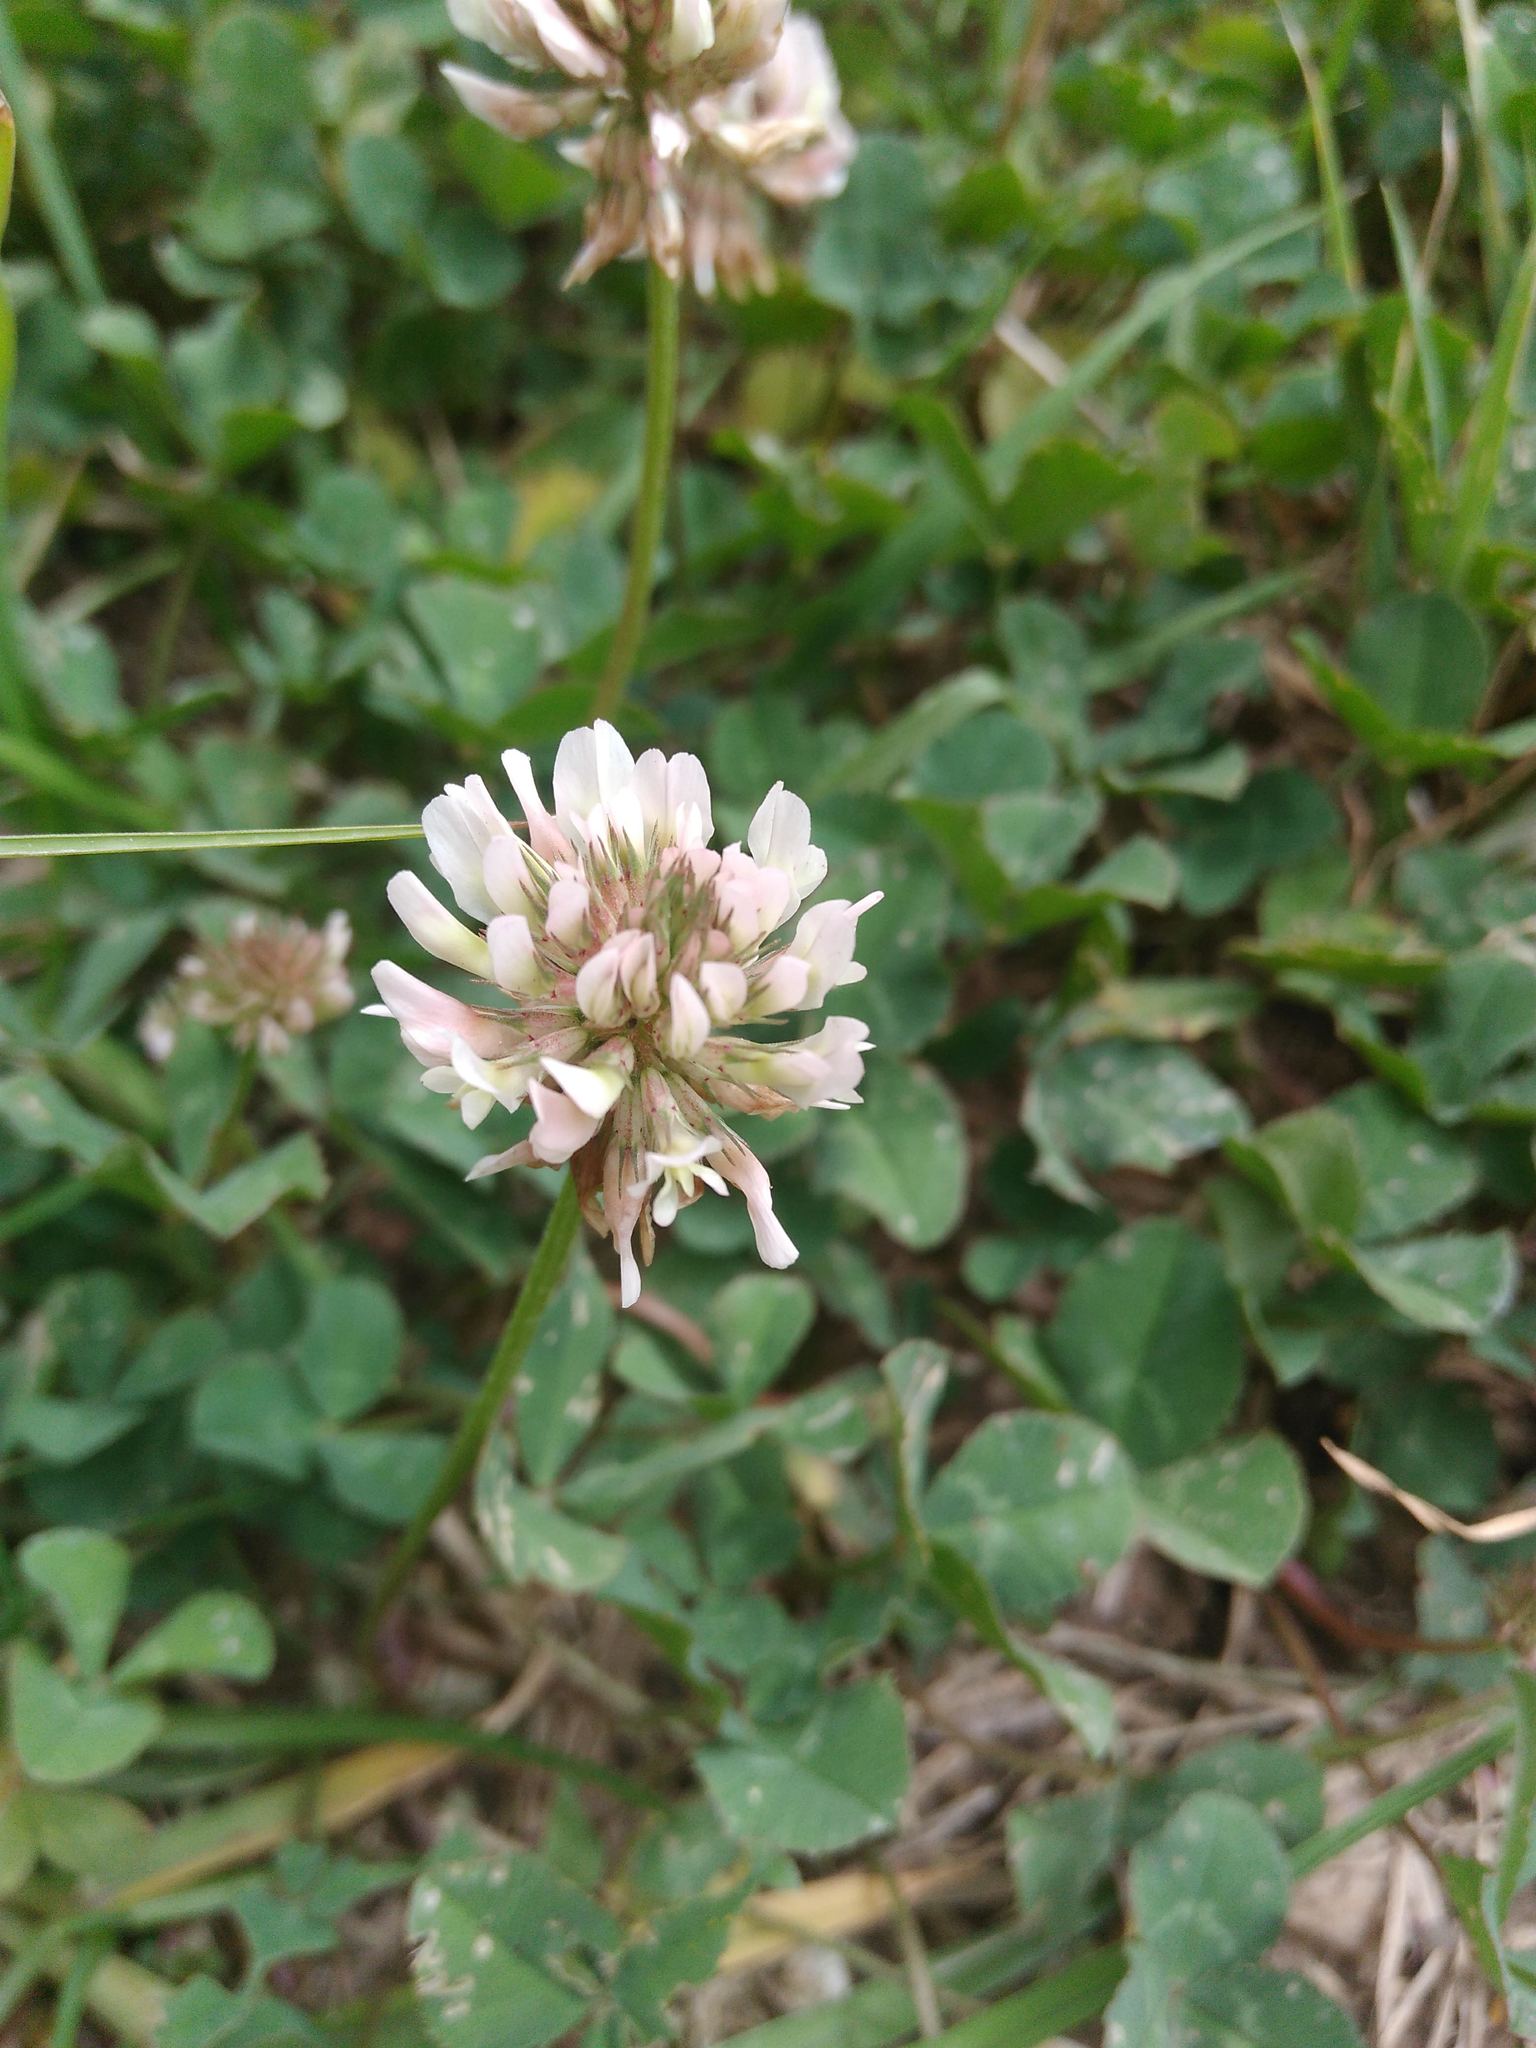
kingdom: Plantae
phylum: Tracheophyta
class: Magnoliopsida
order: Fabales
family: Fabaceae
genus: Trifolium
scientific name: Trifolium repens
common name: White clover
